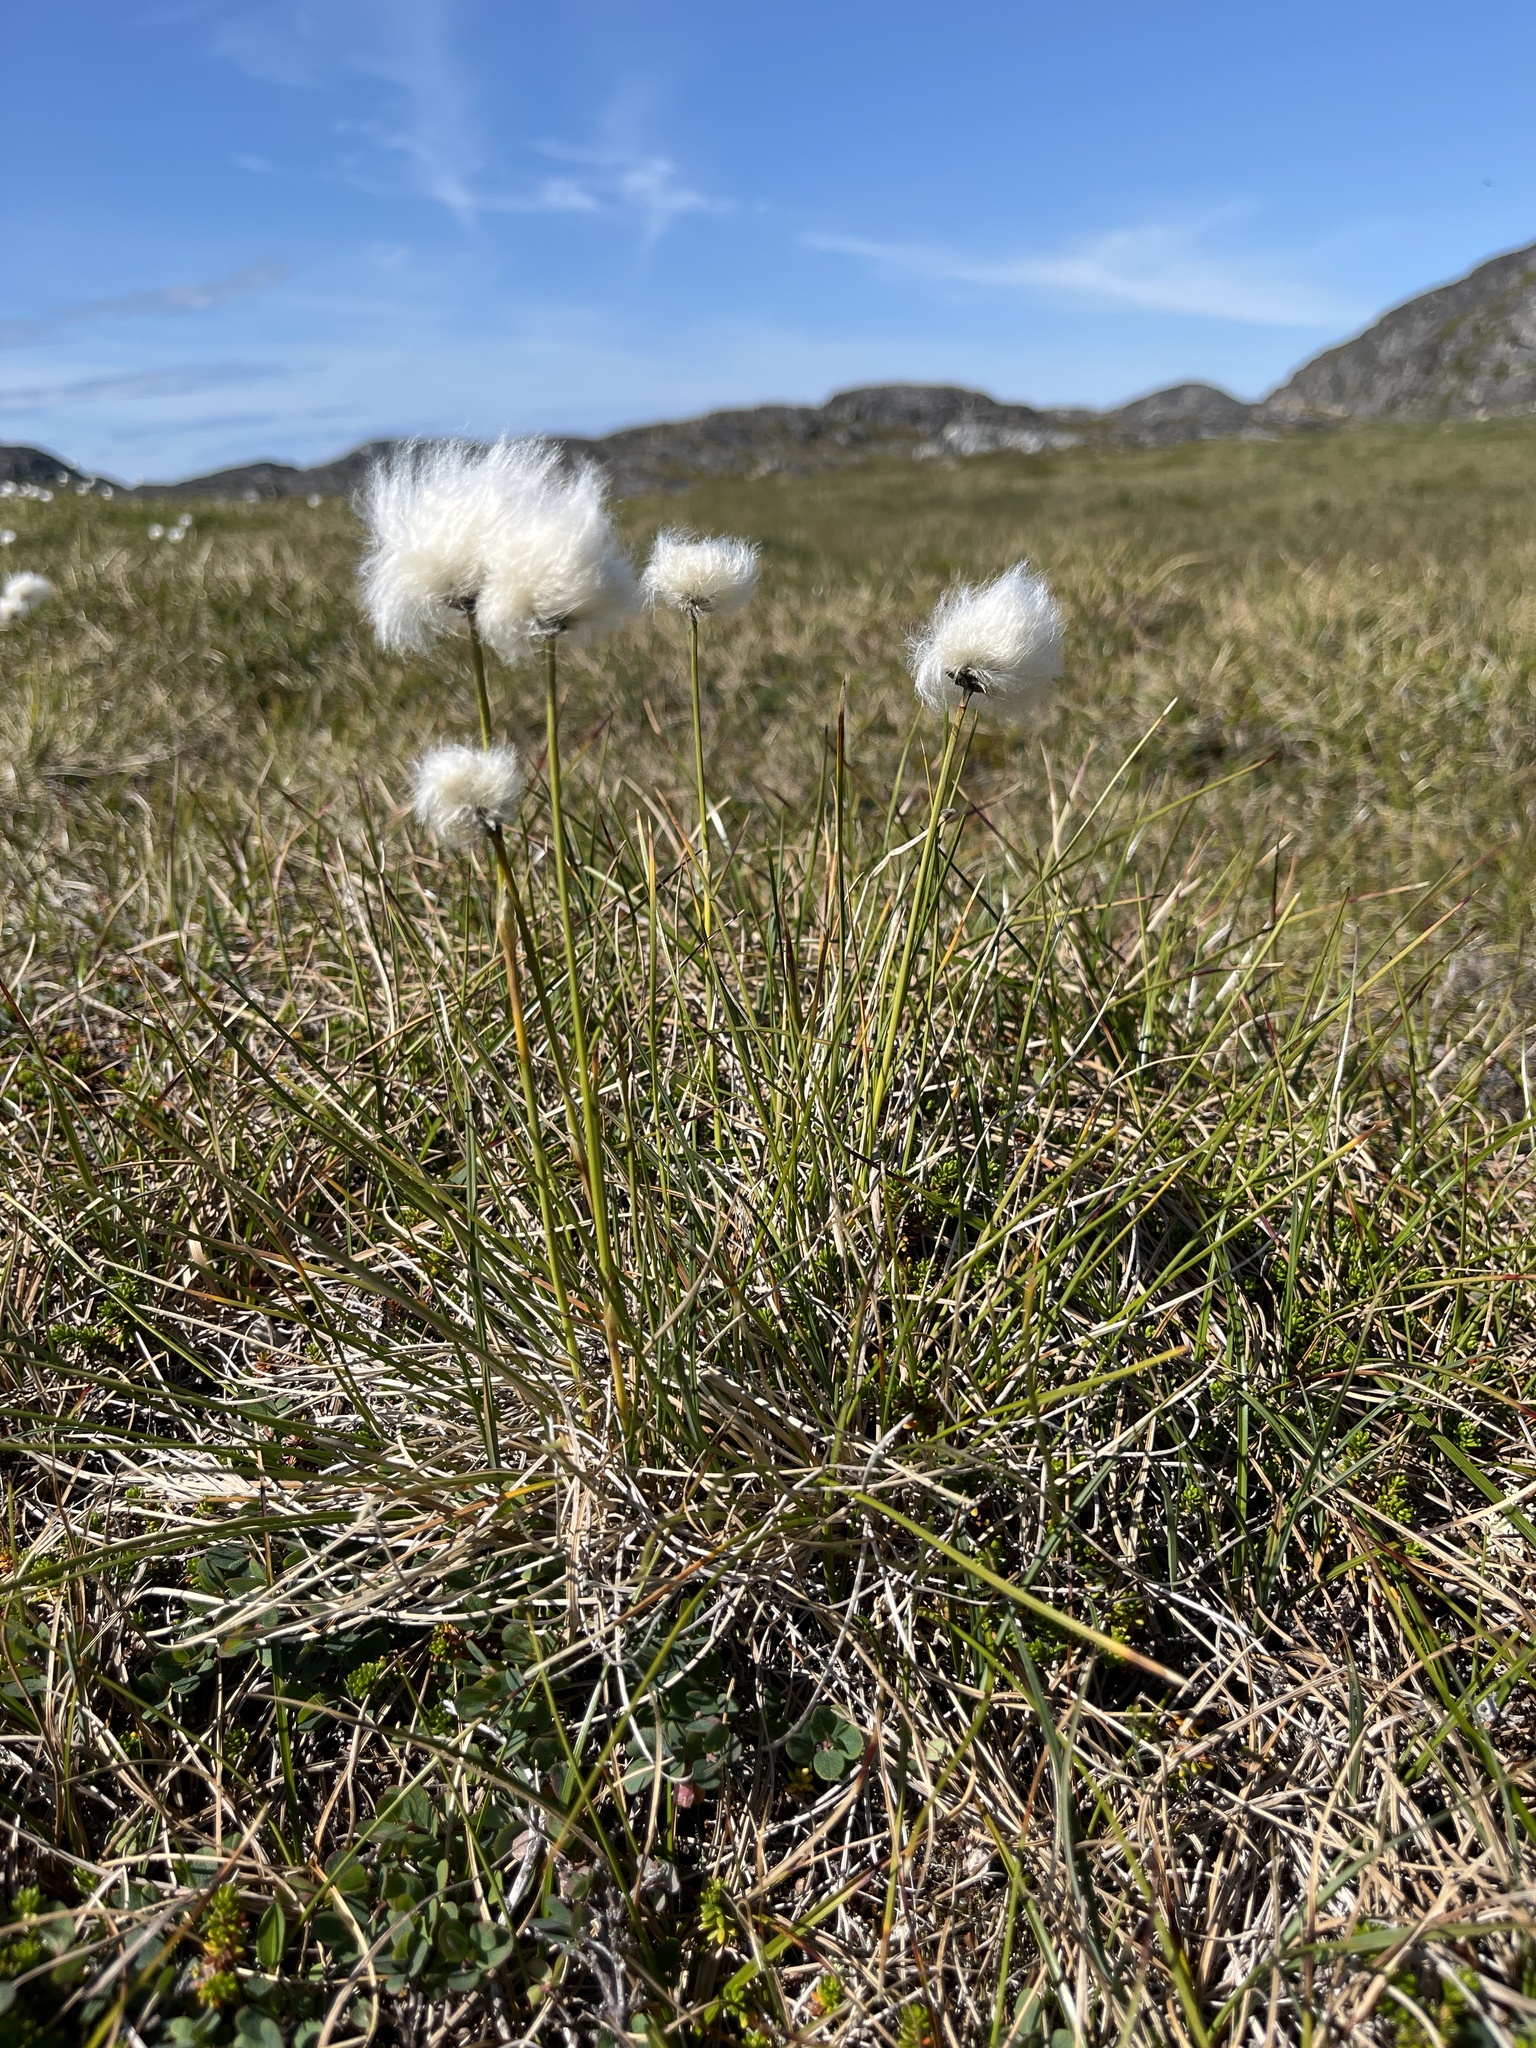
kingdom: Plantae
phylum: Tracheophyta
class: Liliopsida
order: Poales
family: Cyperaceae
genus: Eriophorum
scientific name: Eriophorum vaginatum
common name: Hare's-tail cottongrass
